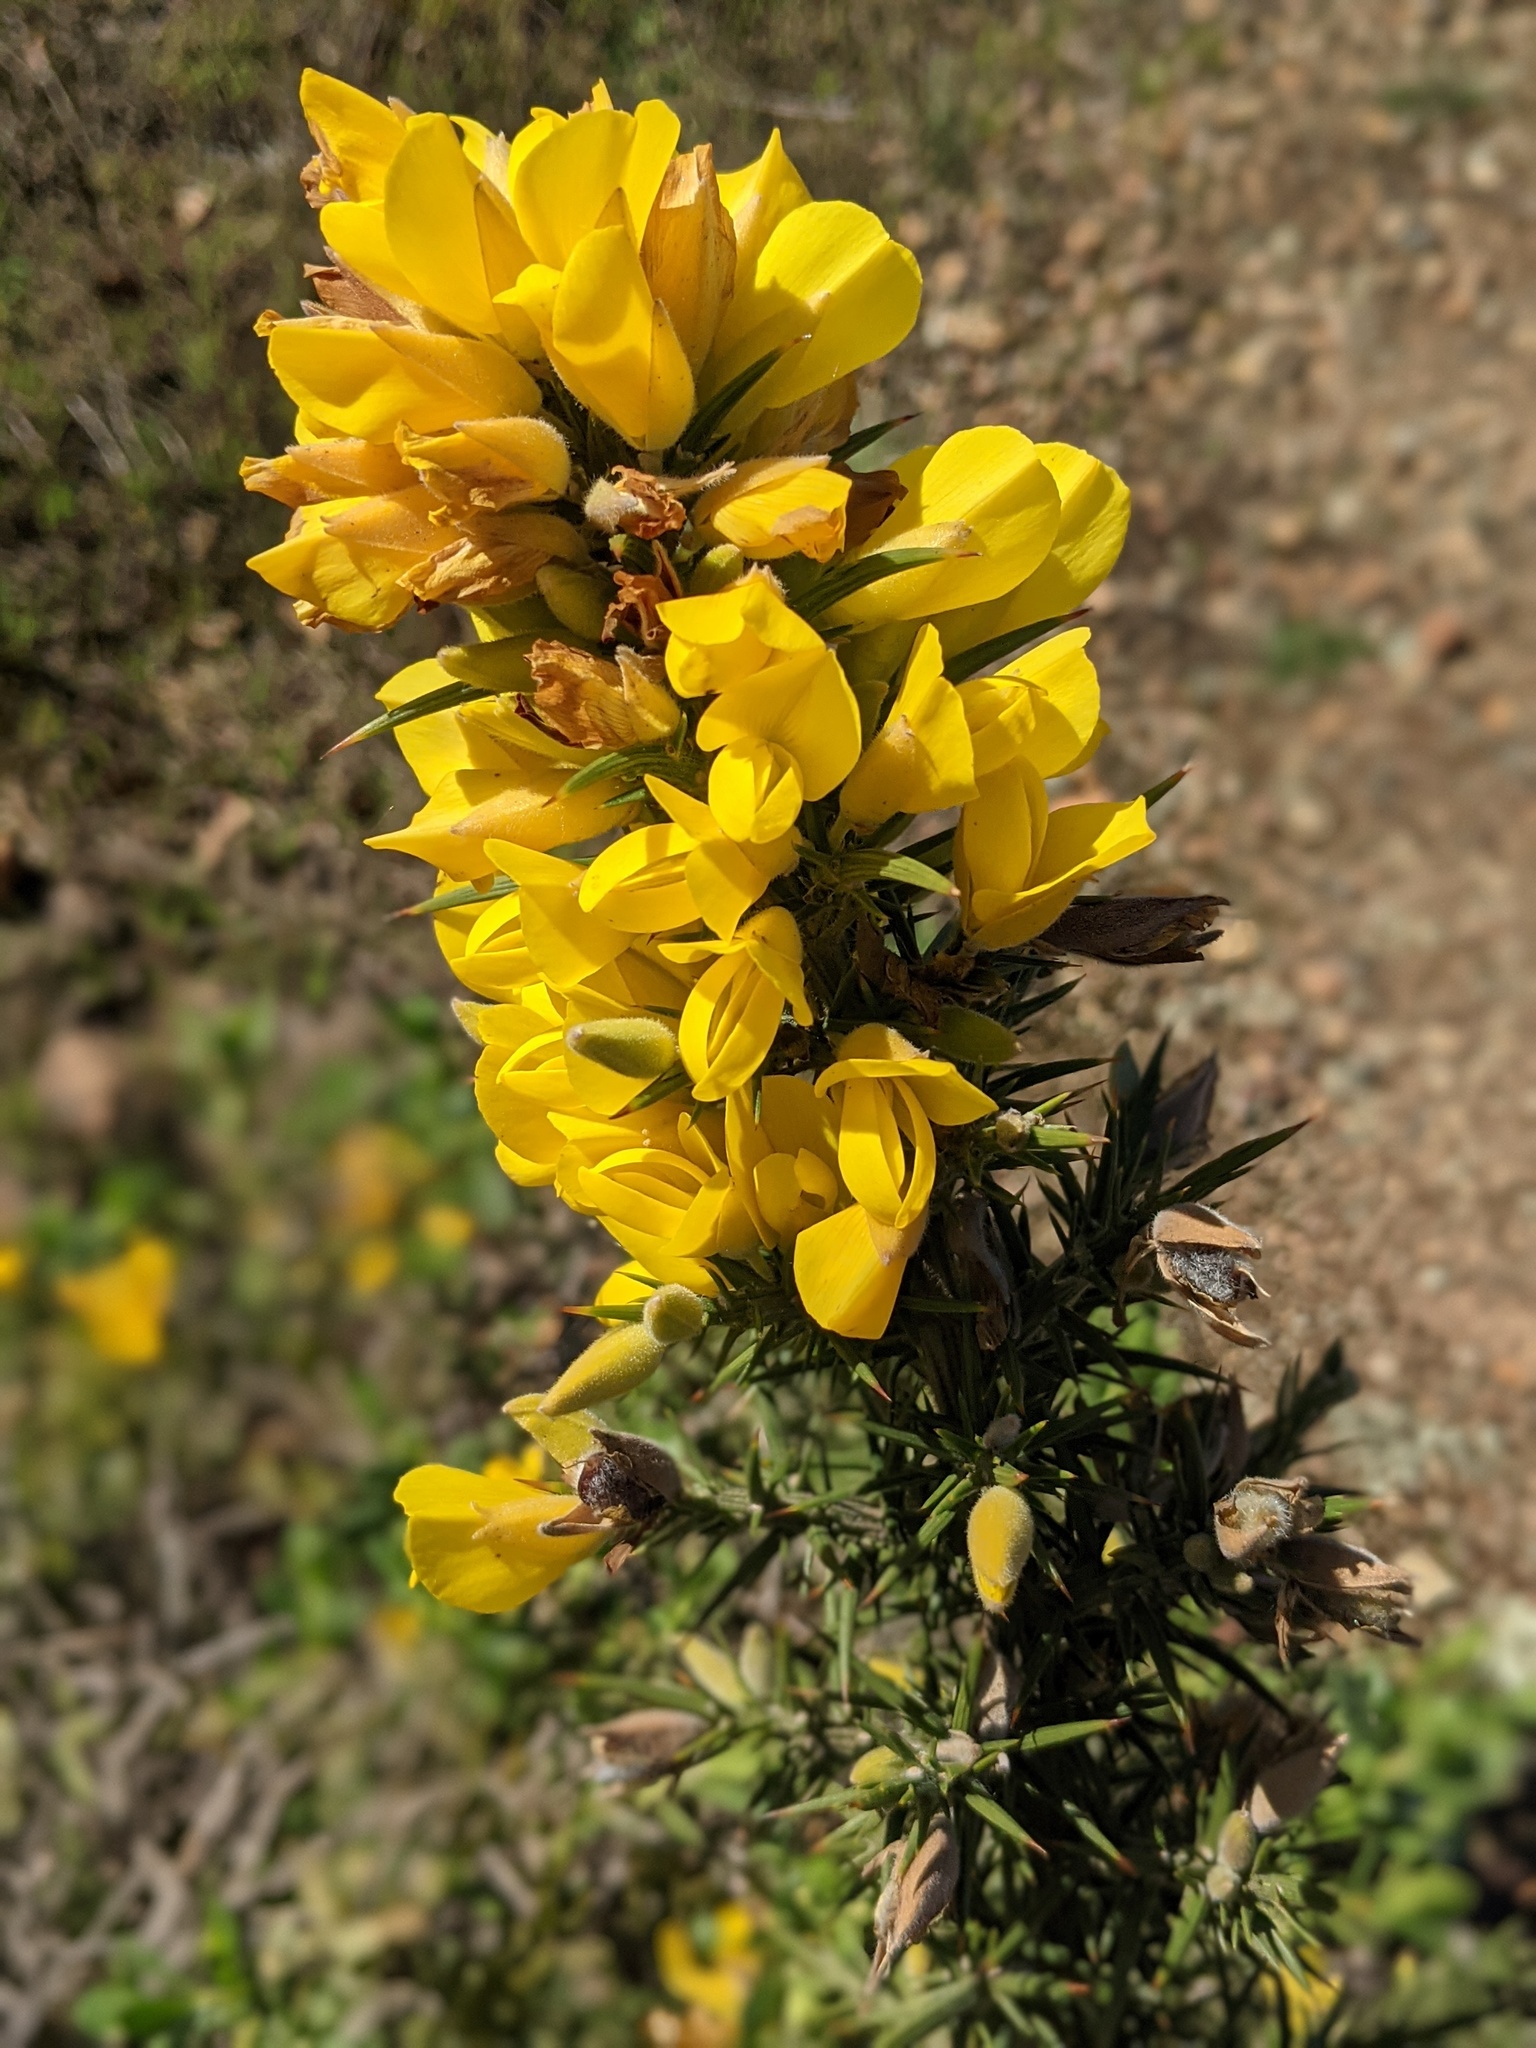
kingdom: Plantae
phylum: Tracheophyta
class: Magnoliopsida
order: Fabales
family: Fabaceae
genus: Ulex
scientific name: Ulex europaeus
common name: Common gorse
